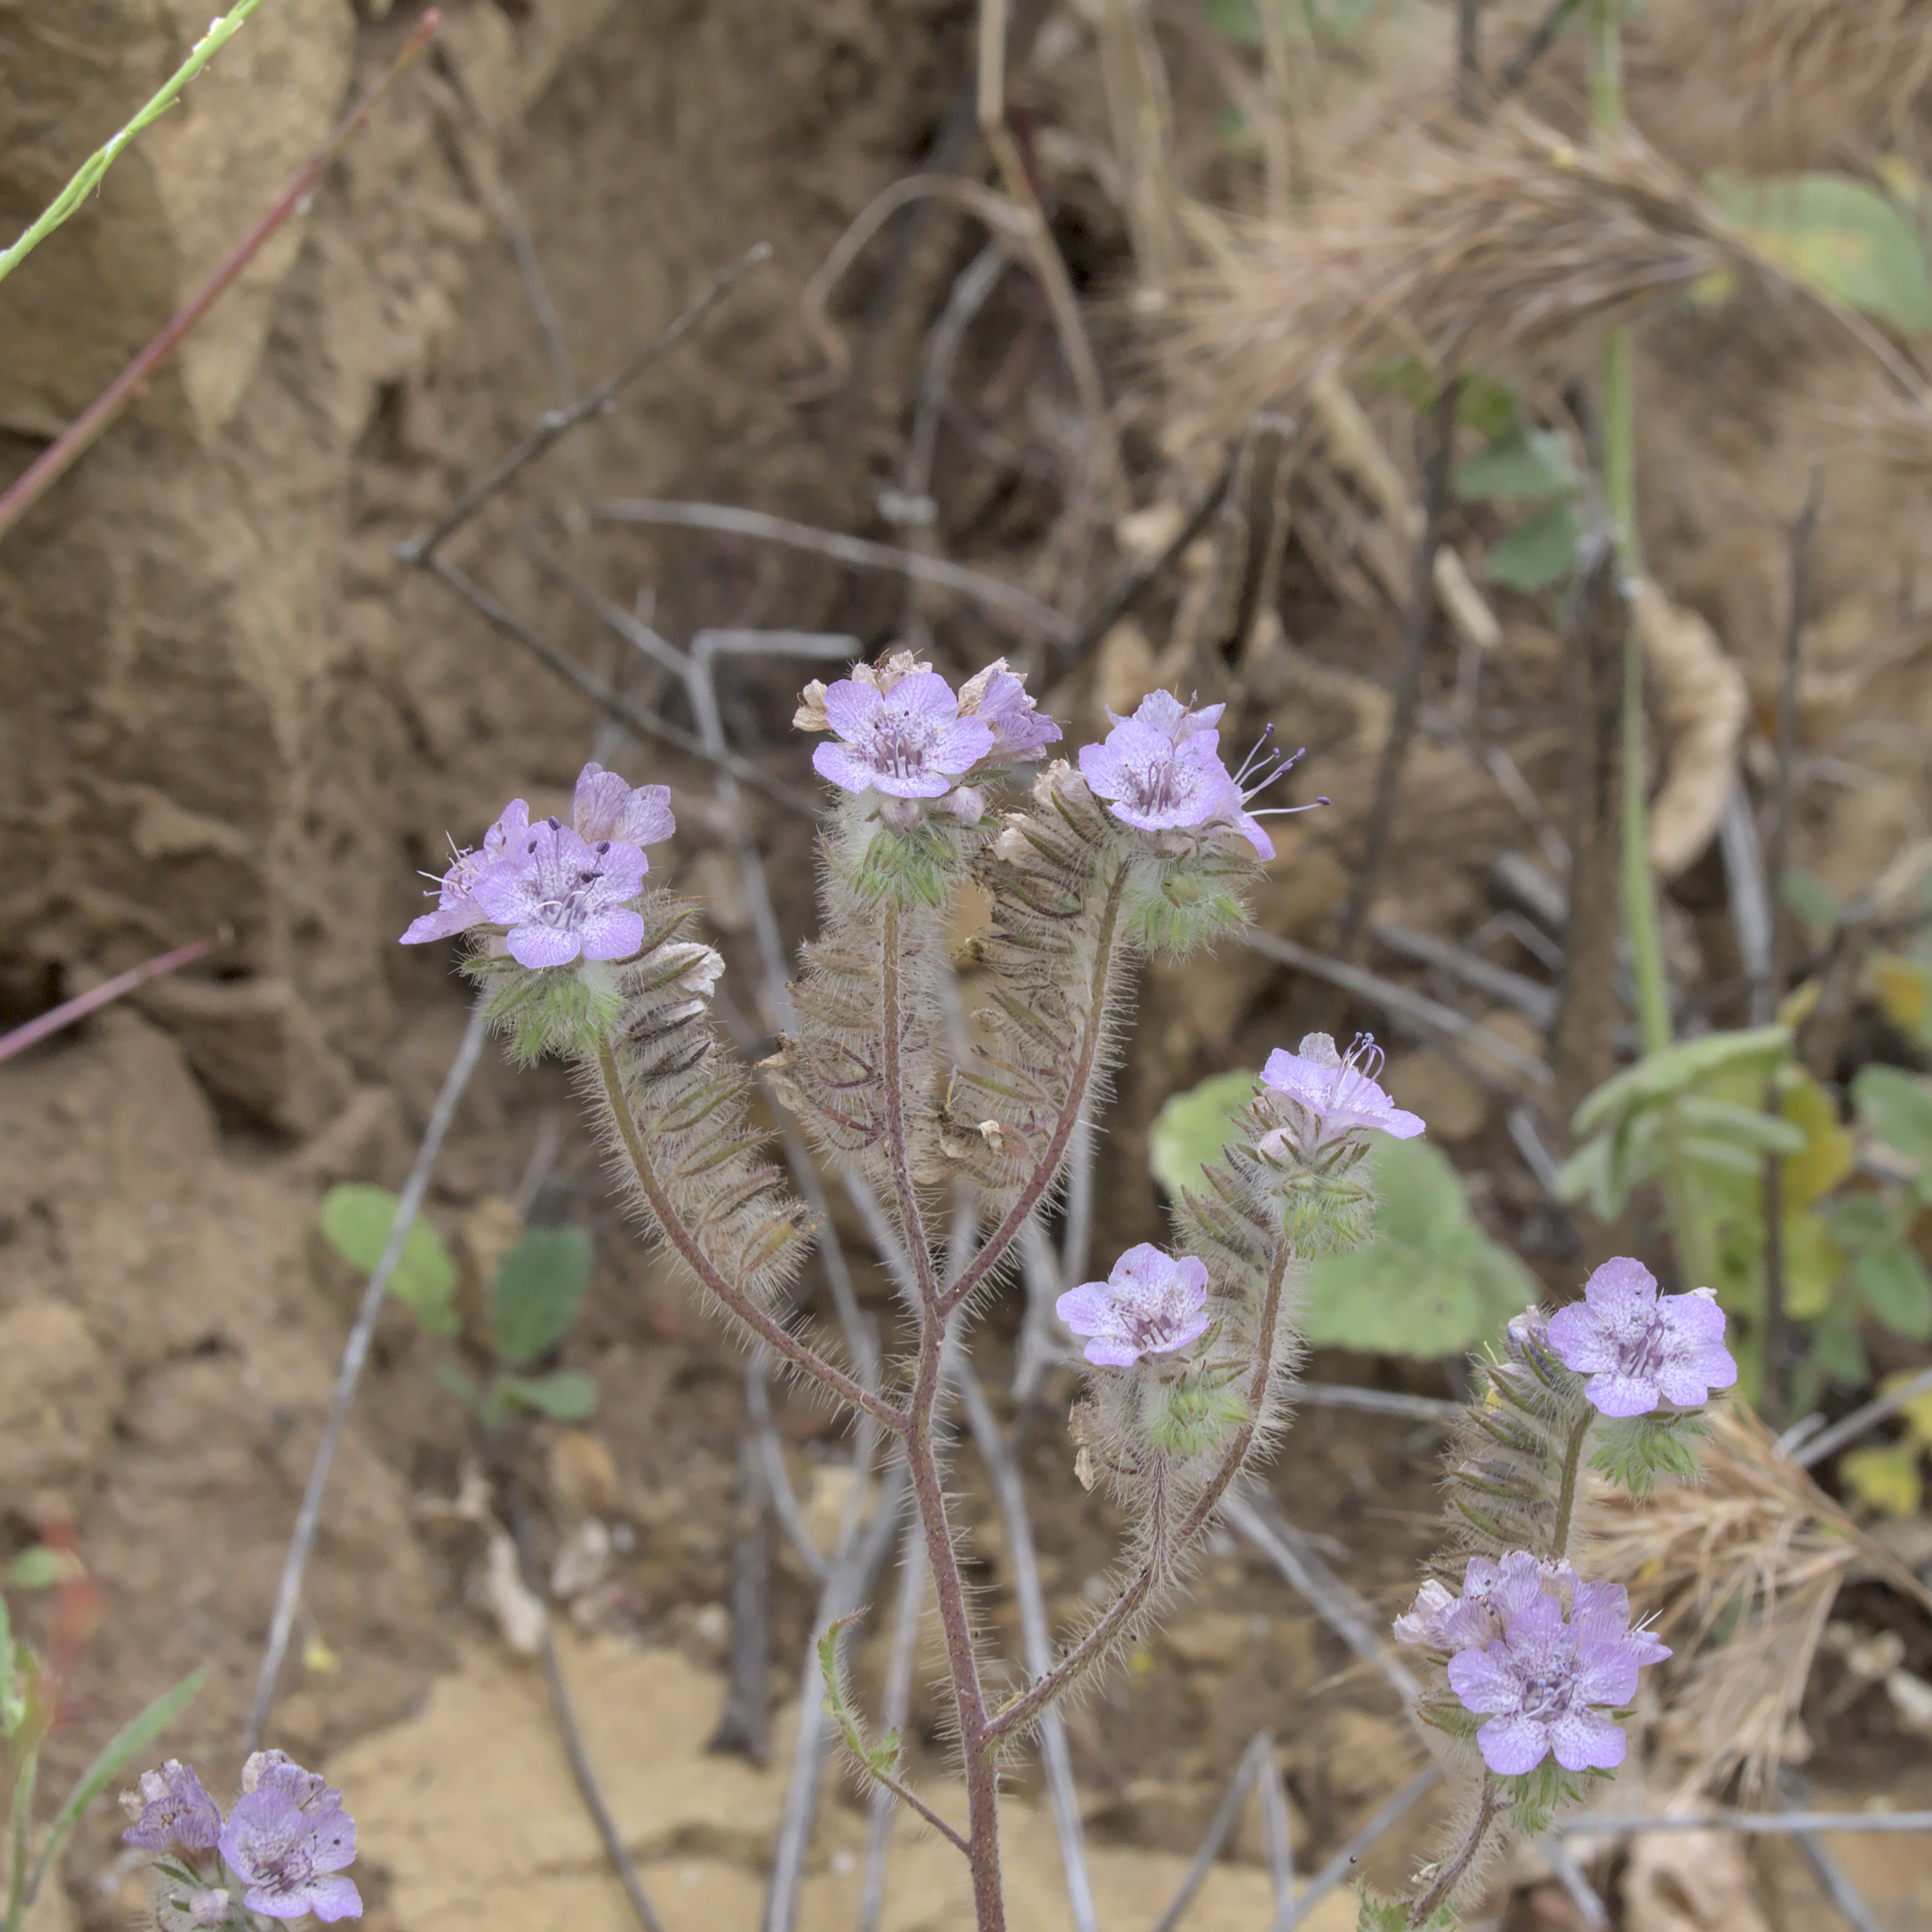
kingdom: Plantae
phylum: Tracheophyta
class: Magnoliopsida
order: Boraginales
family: Hydrophyllaceae
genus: Phacelia
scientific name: Phacelia cicutaria
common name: Caterpillar phacelia
